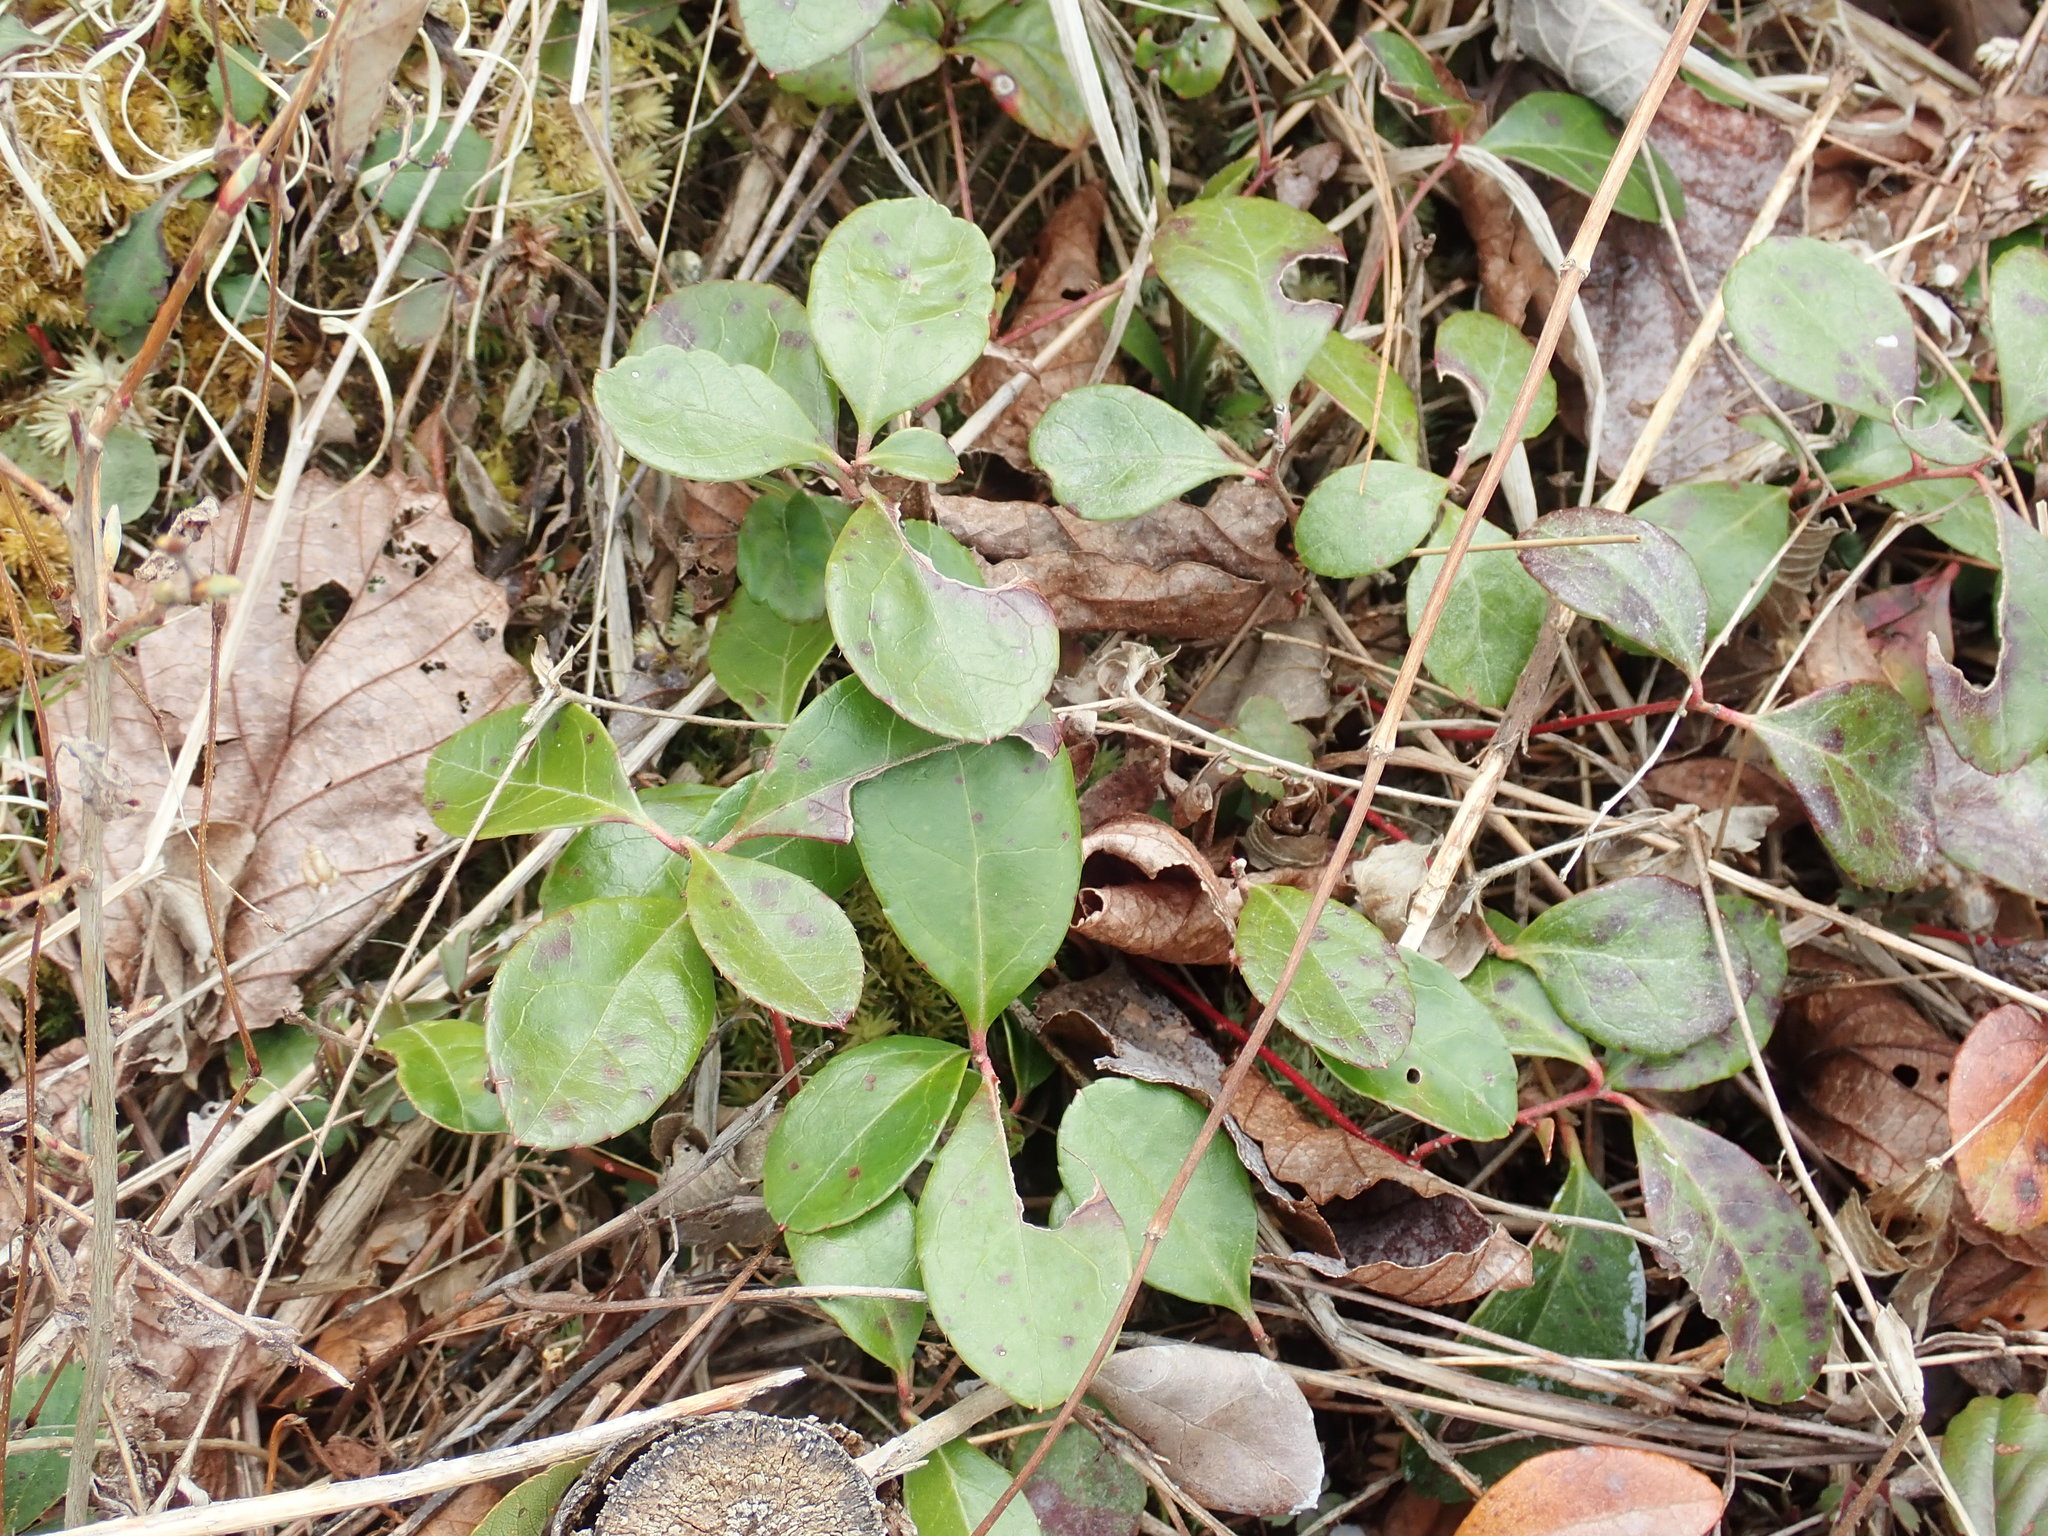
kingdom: Plantae
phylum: Tracheophyta
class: Magnoliopsida
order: Ericales
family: Ericaceae
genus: Gaultheria
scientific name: Gaultheria procumbens
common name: Checkerberry
